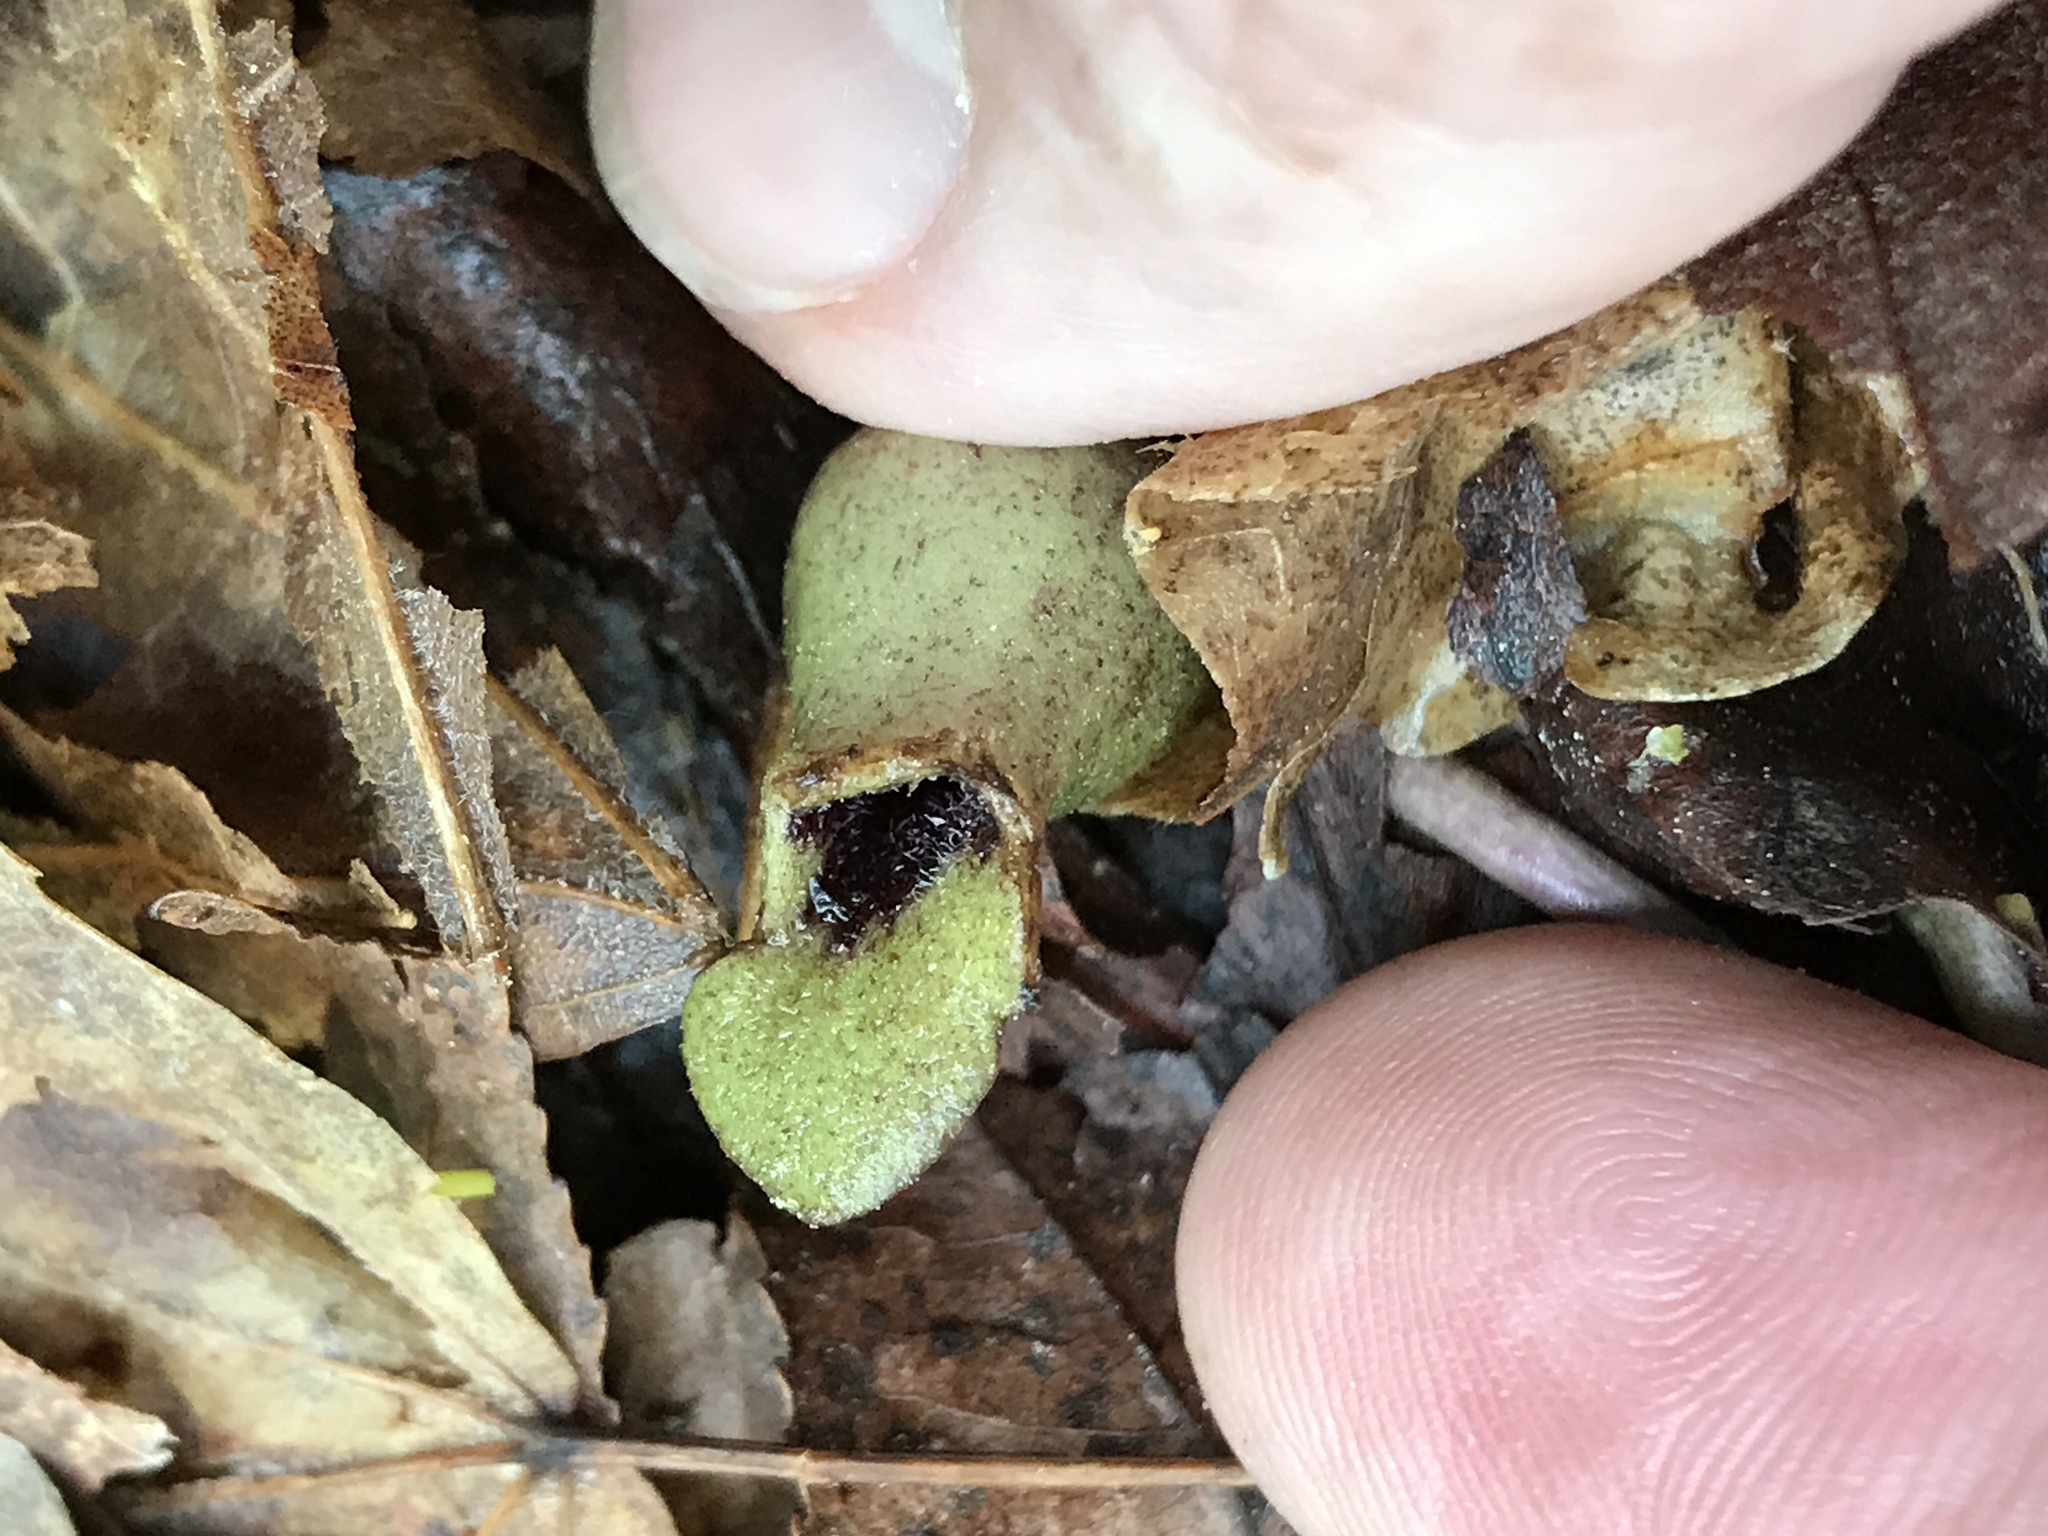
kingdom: Plantae
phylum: Tracheophyta
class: Magnoliopsida
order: Piperales
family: Aristolochiaceae
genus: Hexastylis
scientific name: Hexastylis arifolia
